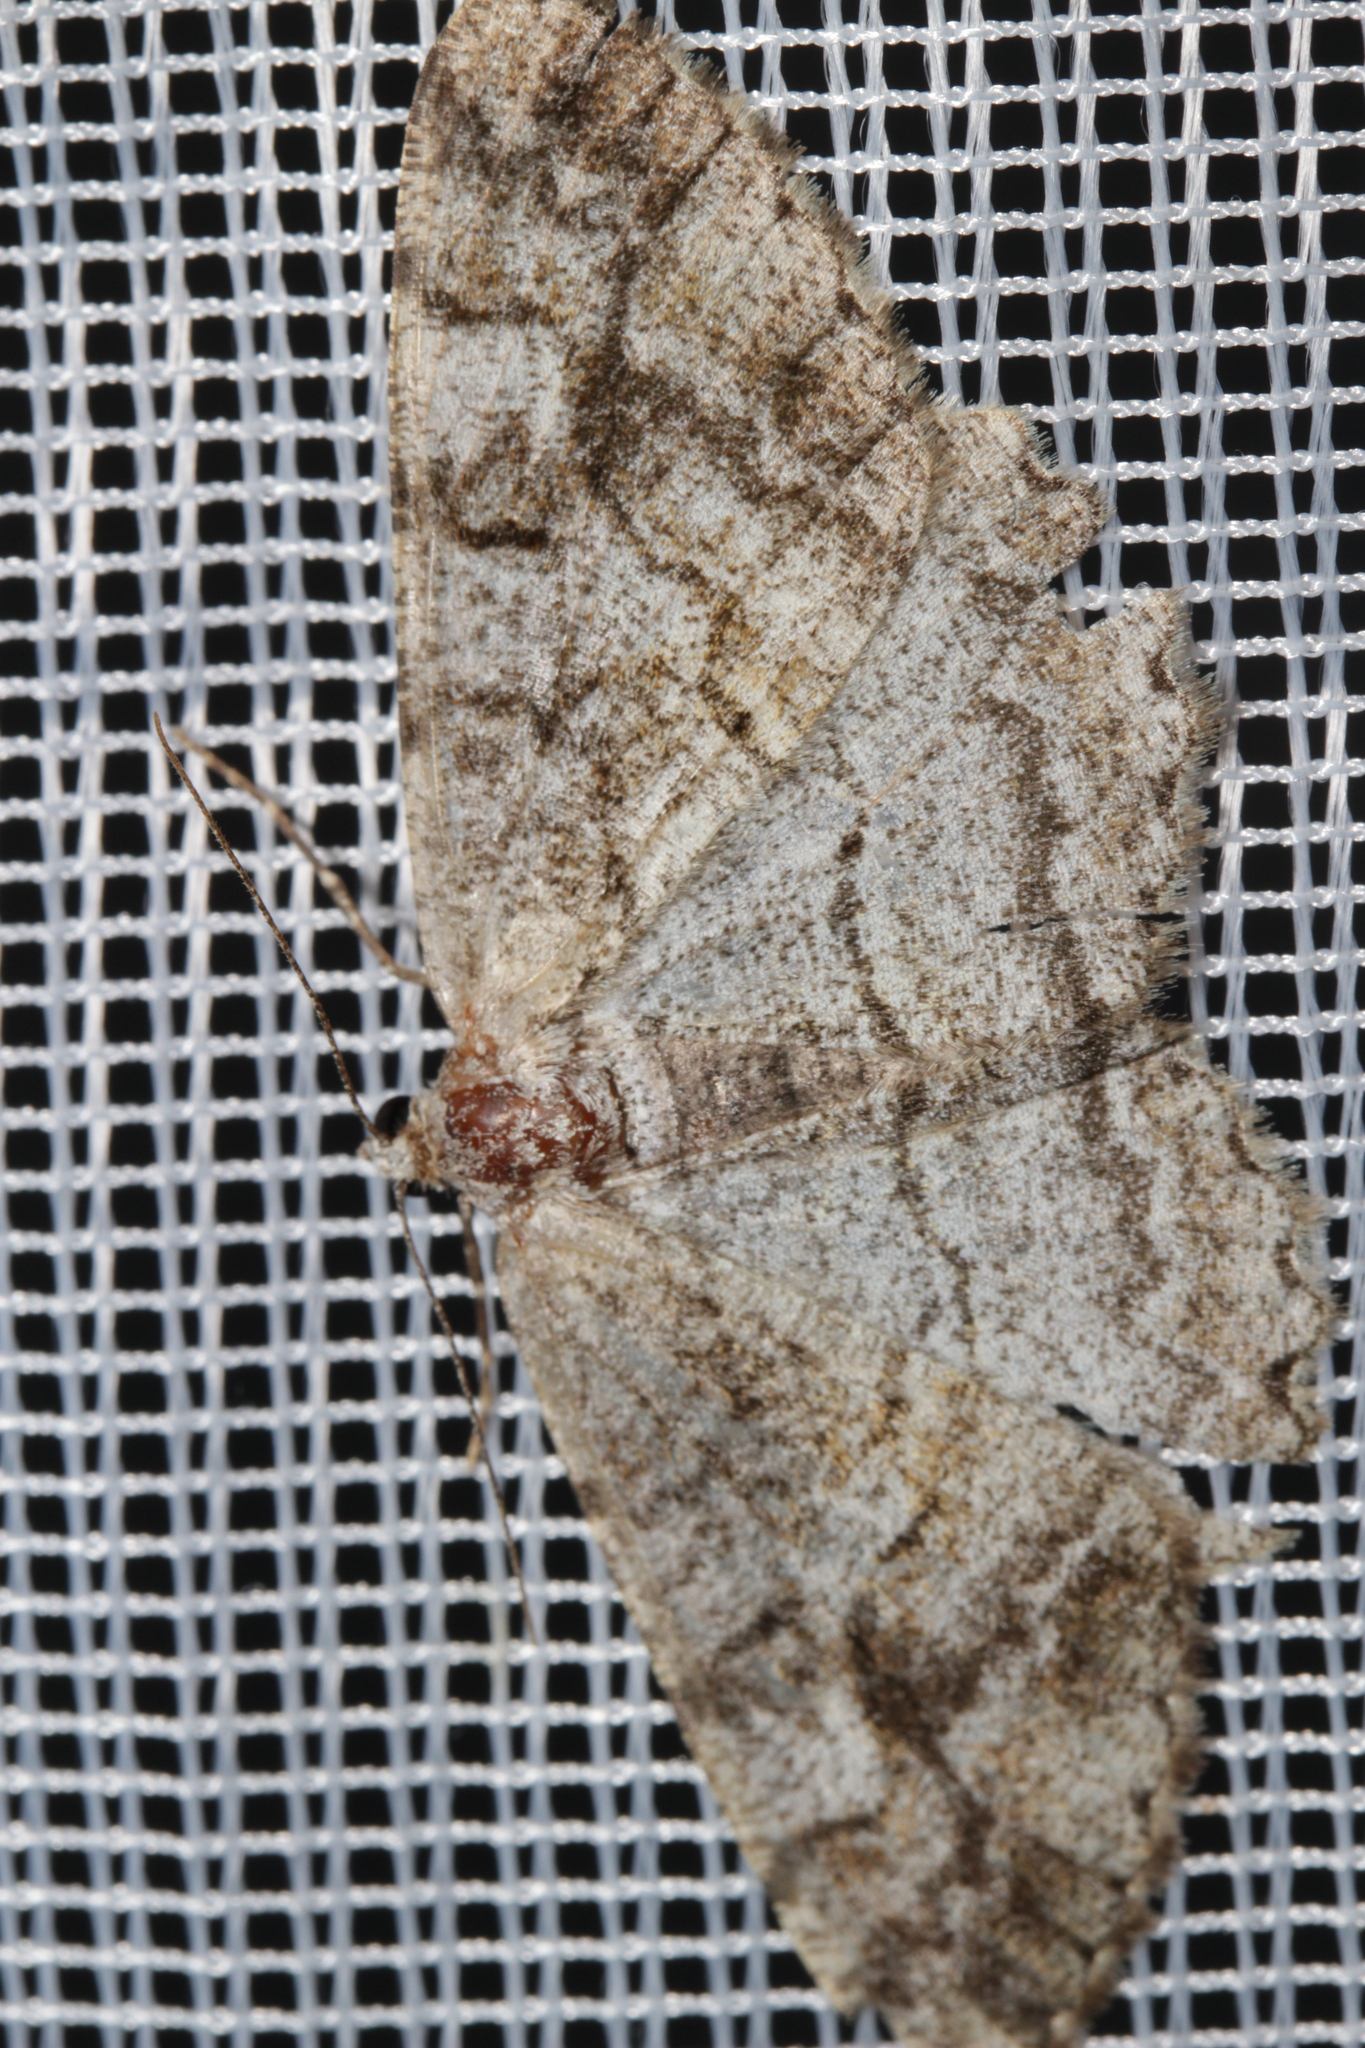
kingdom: Animalia
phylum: Arthropoda
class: Insecta
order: Lepidoptera
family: Geometridae
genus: Alcis
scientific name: Alcis repandata
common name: Mottled beauty
